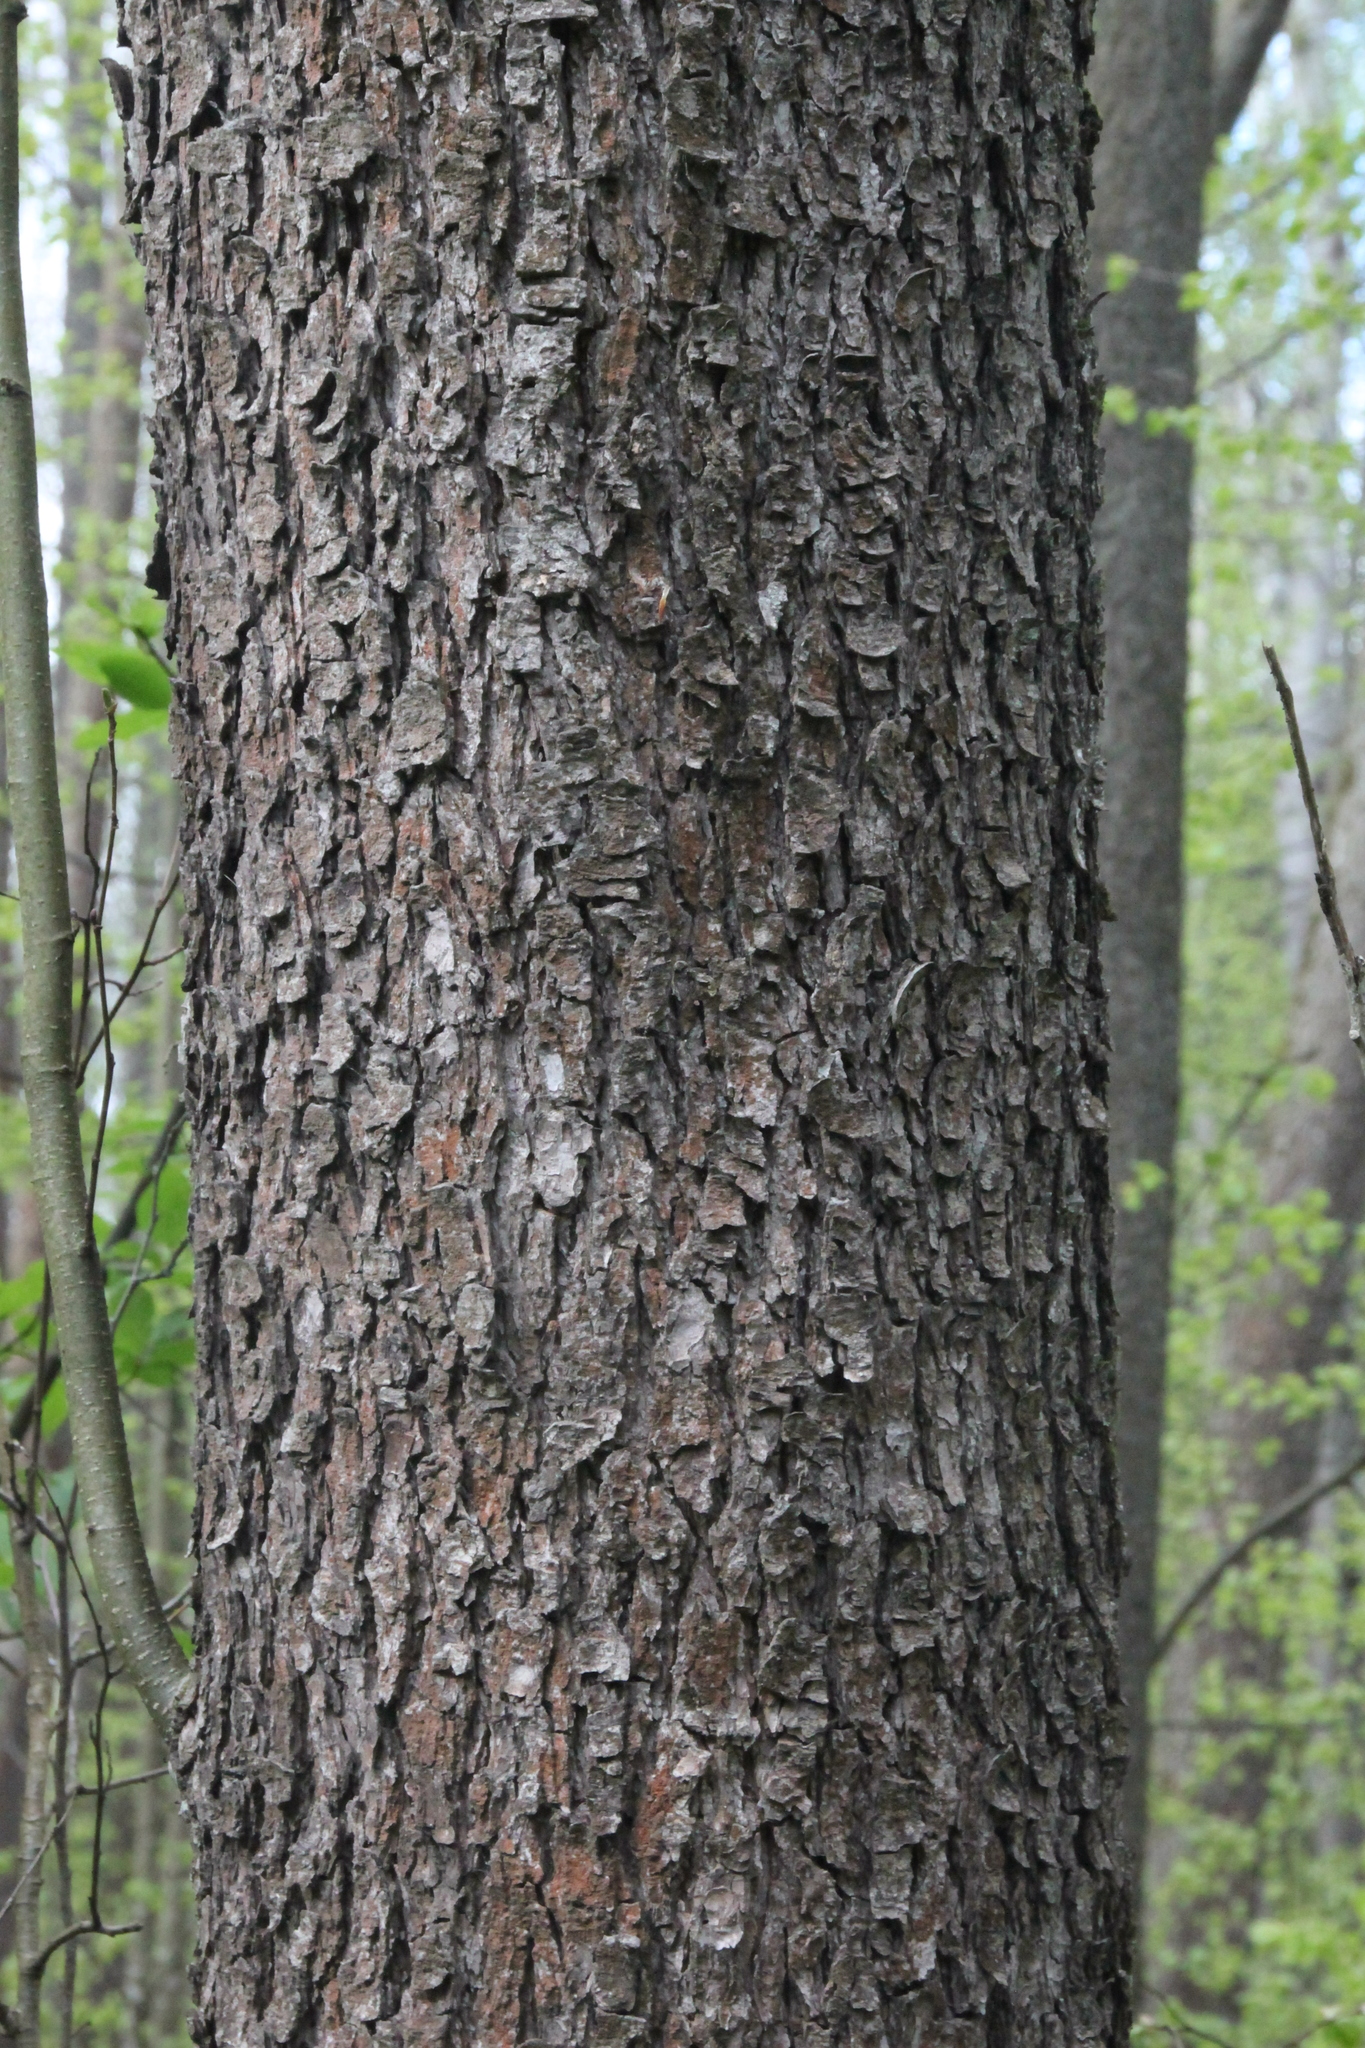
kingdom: Plantae
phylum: Tracheophyta
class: Magnoliopsida
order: Fagales
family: Betulaceae
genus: Alnus
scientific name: Alnus glutinosa
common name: Black alder
